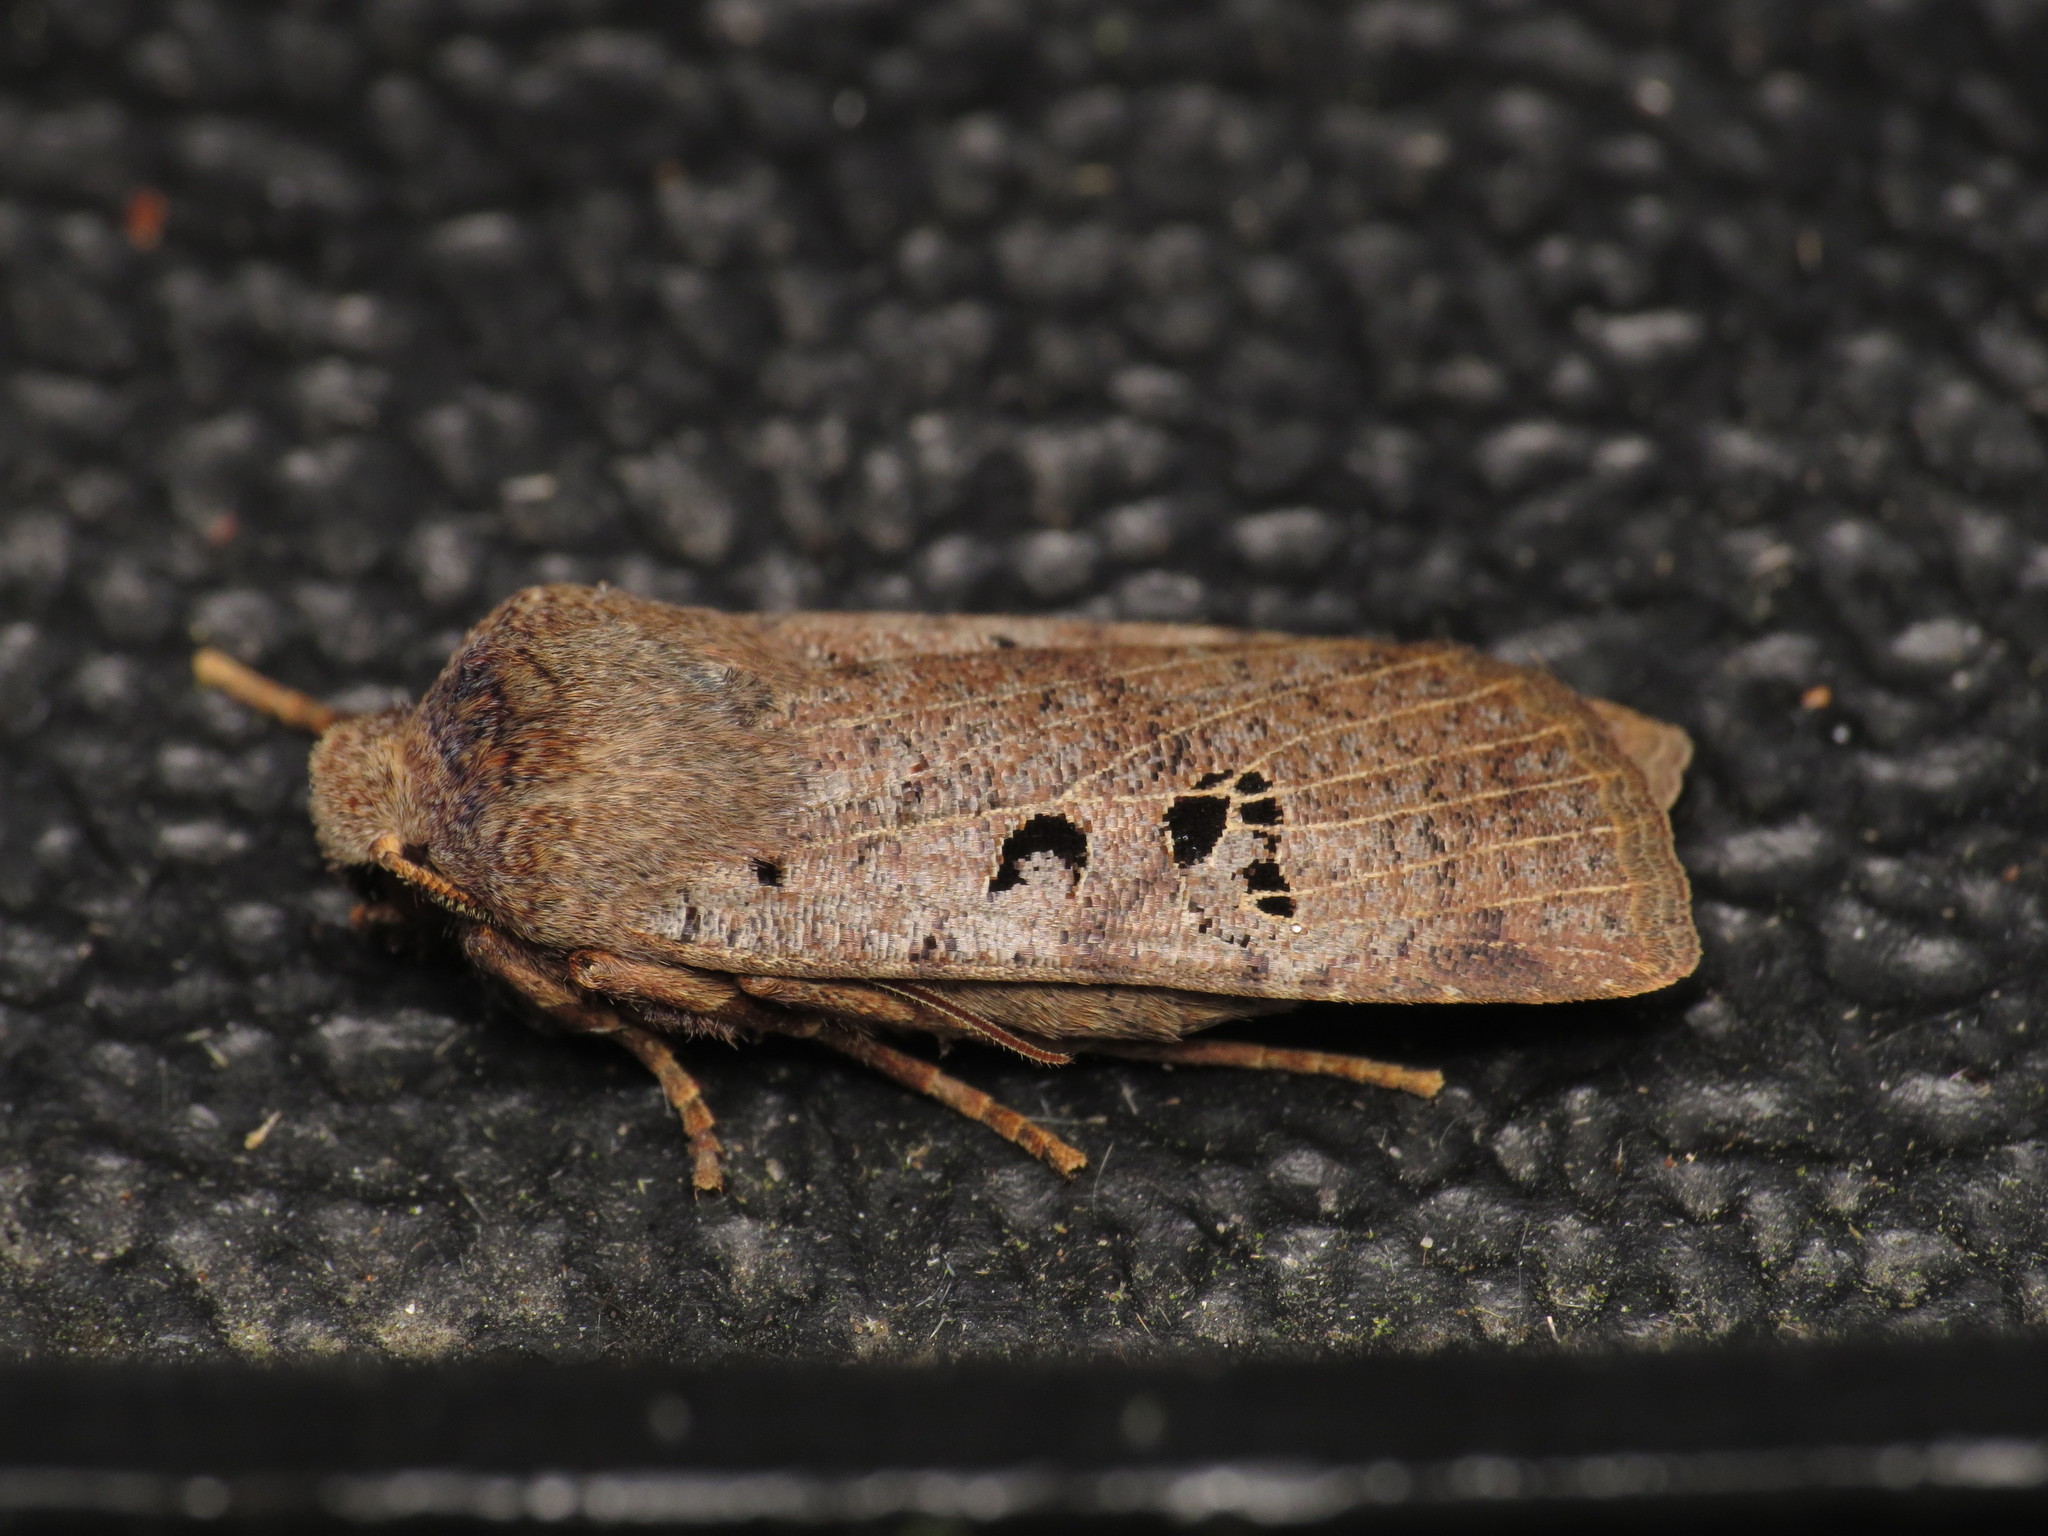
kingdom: Animalia
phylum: Arthropoda
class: Insecta
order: Lepidoptera
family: Noctuidae
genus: Conistra
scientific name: Conistra rubiginosa
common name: Black-spotted chestnut
